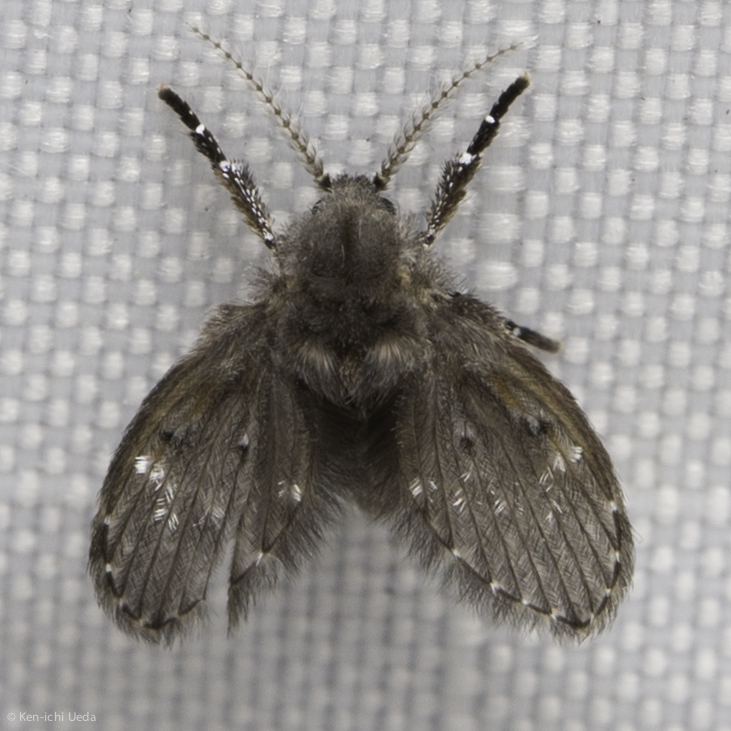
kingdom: Animalia
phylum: Arthropoda
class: Insecta
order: Diptera
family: Psychodidae
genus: Clogmia
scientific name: Clogmia albipunctatus
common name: White-spotted moth fly
